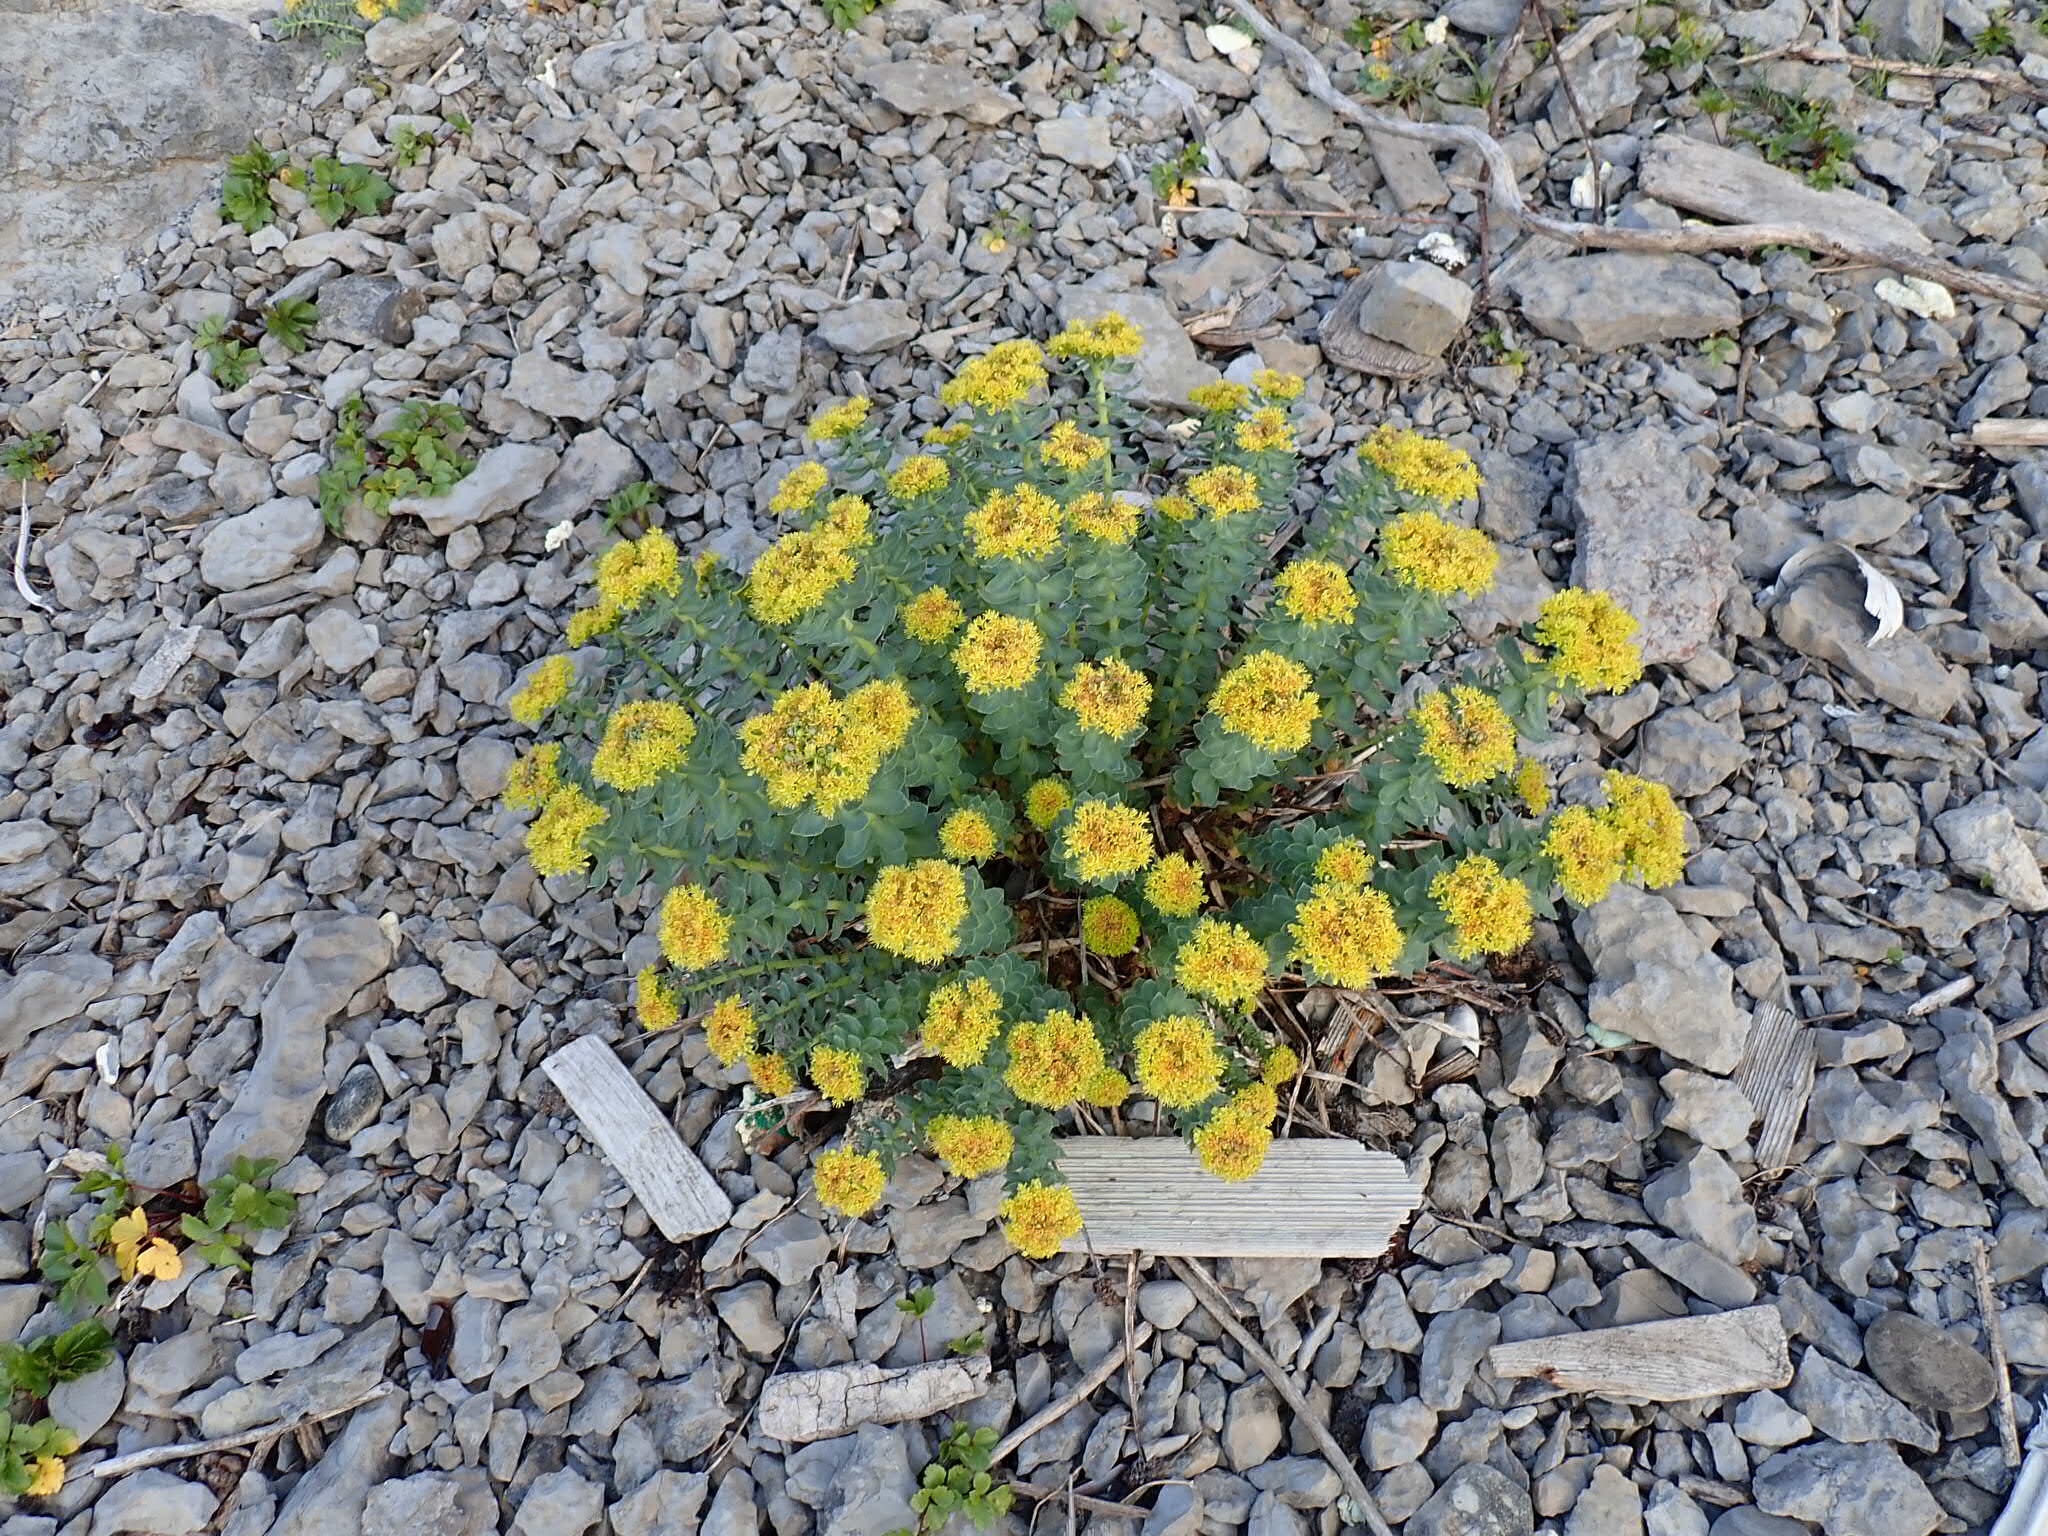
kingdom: Plantae
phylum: Tracheophyta
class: Magnoliopsida
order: Saxifragales
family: Crassulaceae
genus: Rhodiola
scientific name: Rhodiola rosea
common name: Roseroot
